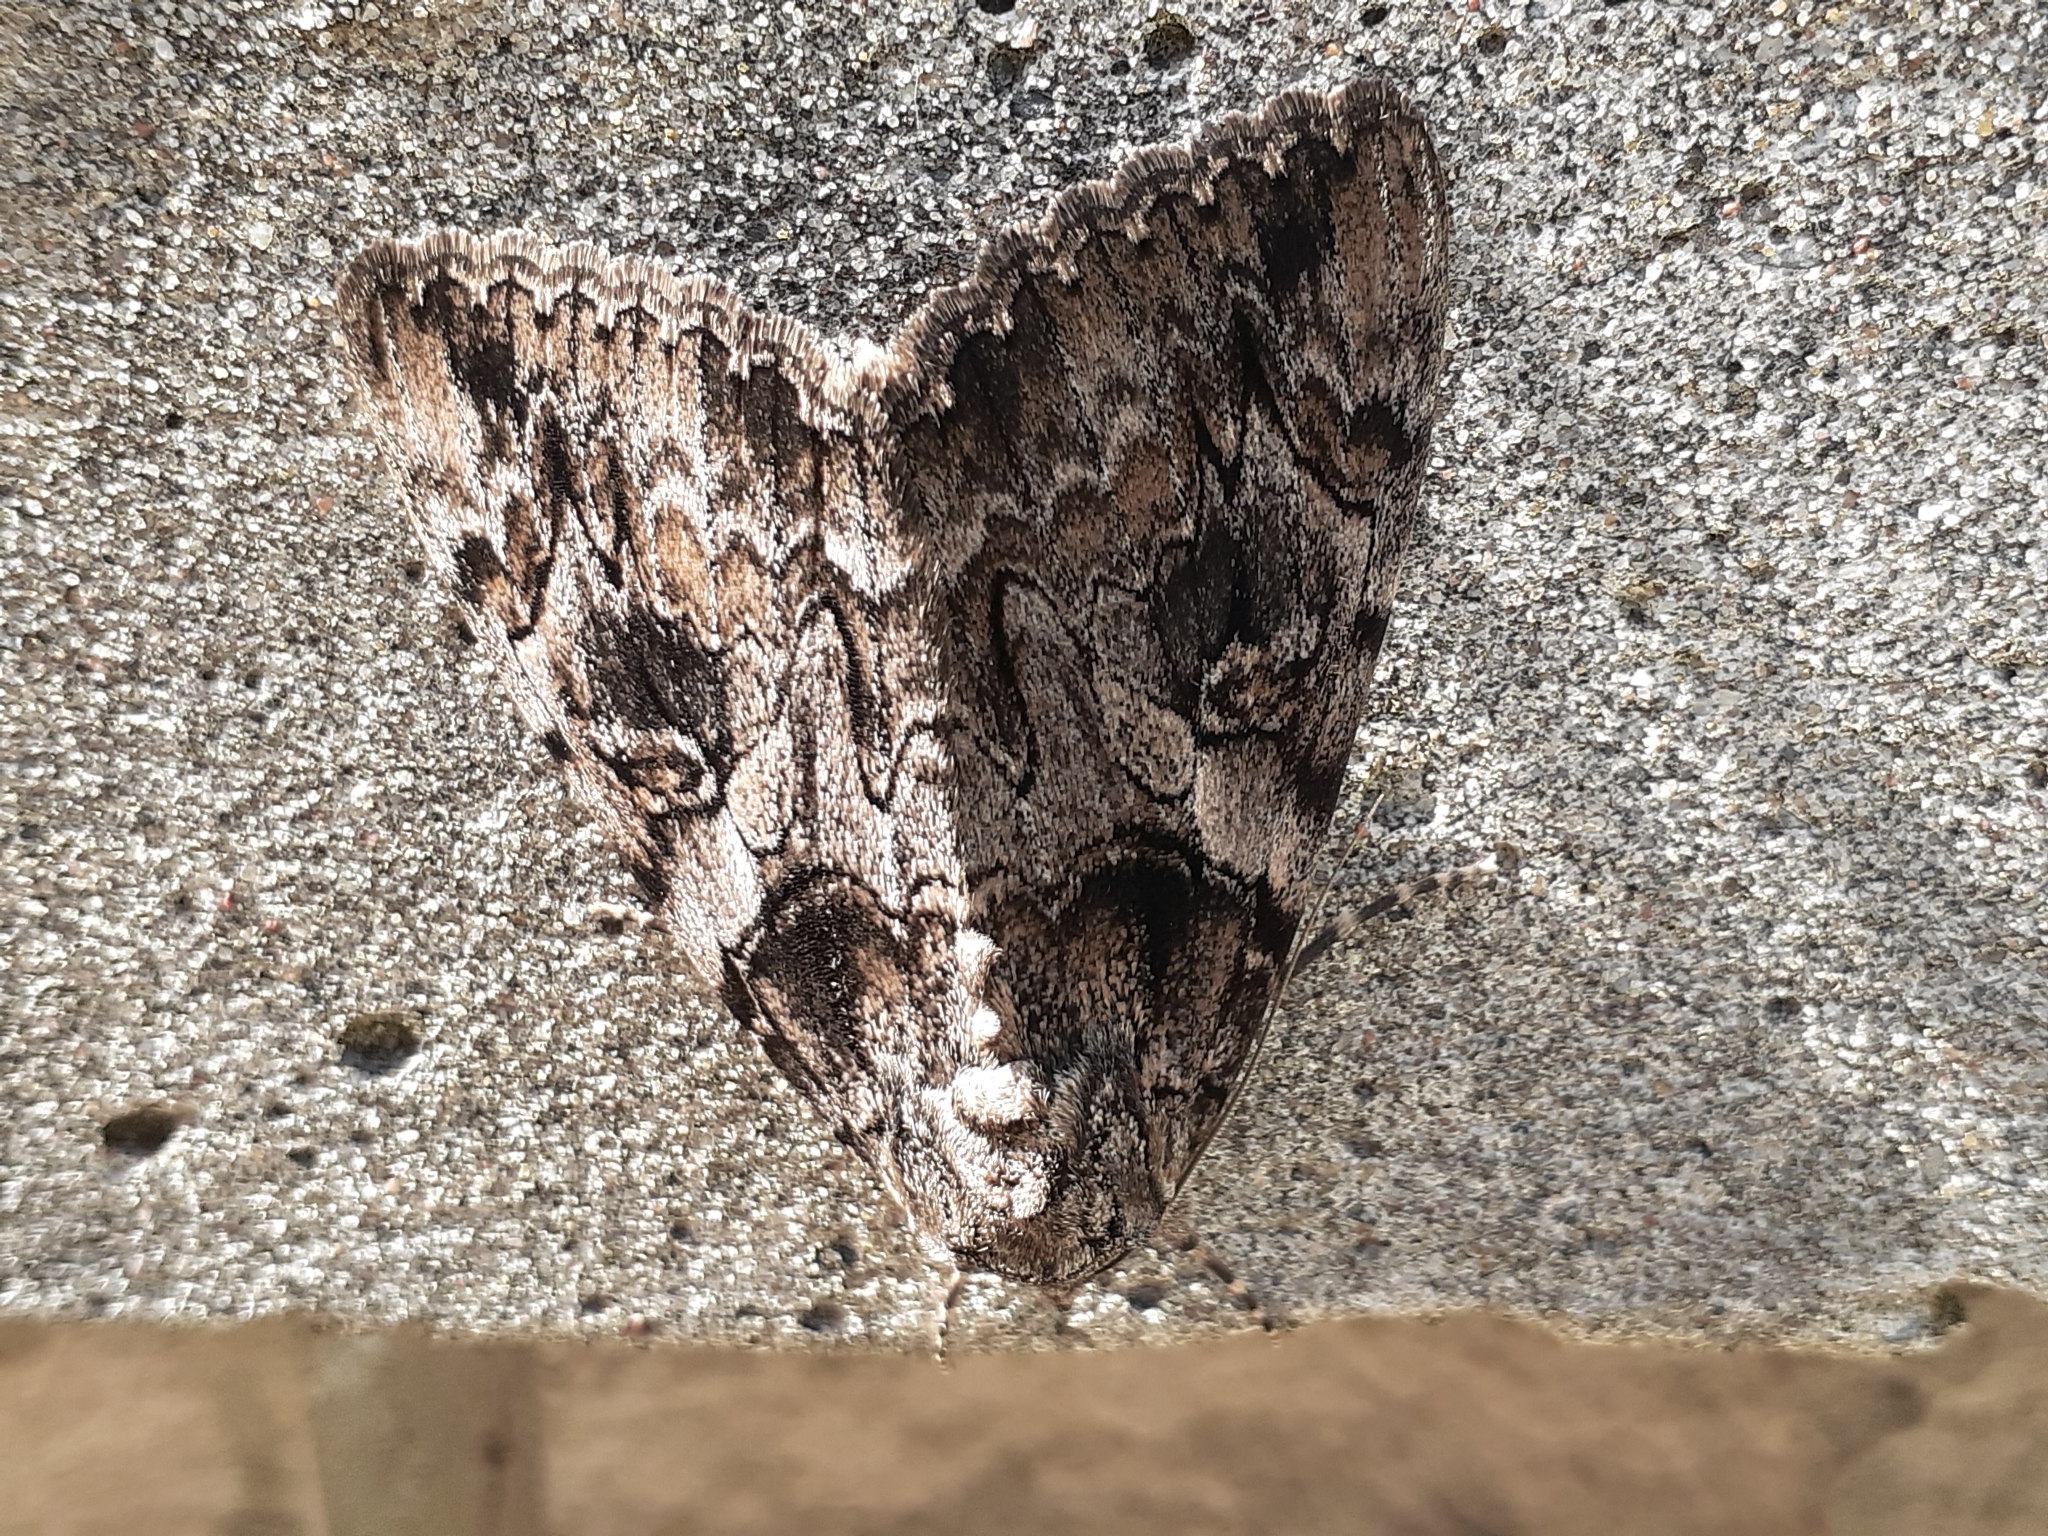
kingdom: Animalia
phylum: Arthropoda
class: Insecta
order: Lepidoptera
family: Erebidae
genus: Catocala
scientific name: Catocala piatrix
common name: The penitent underwing
